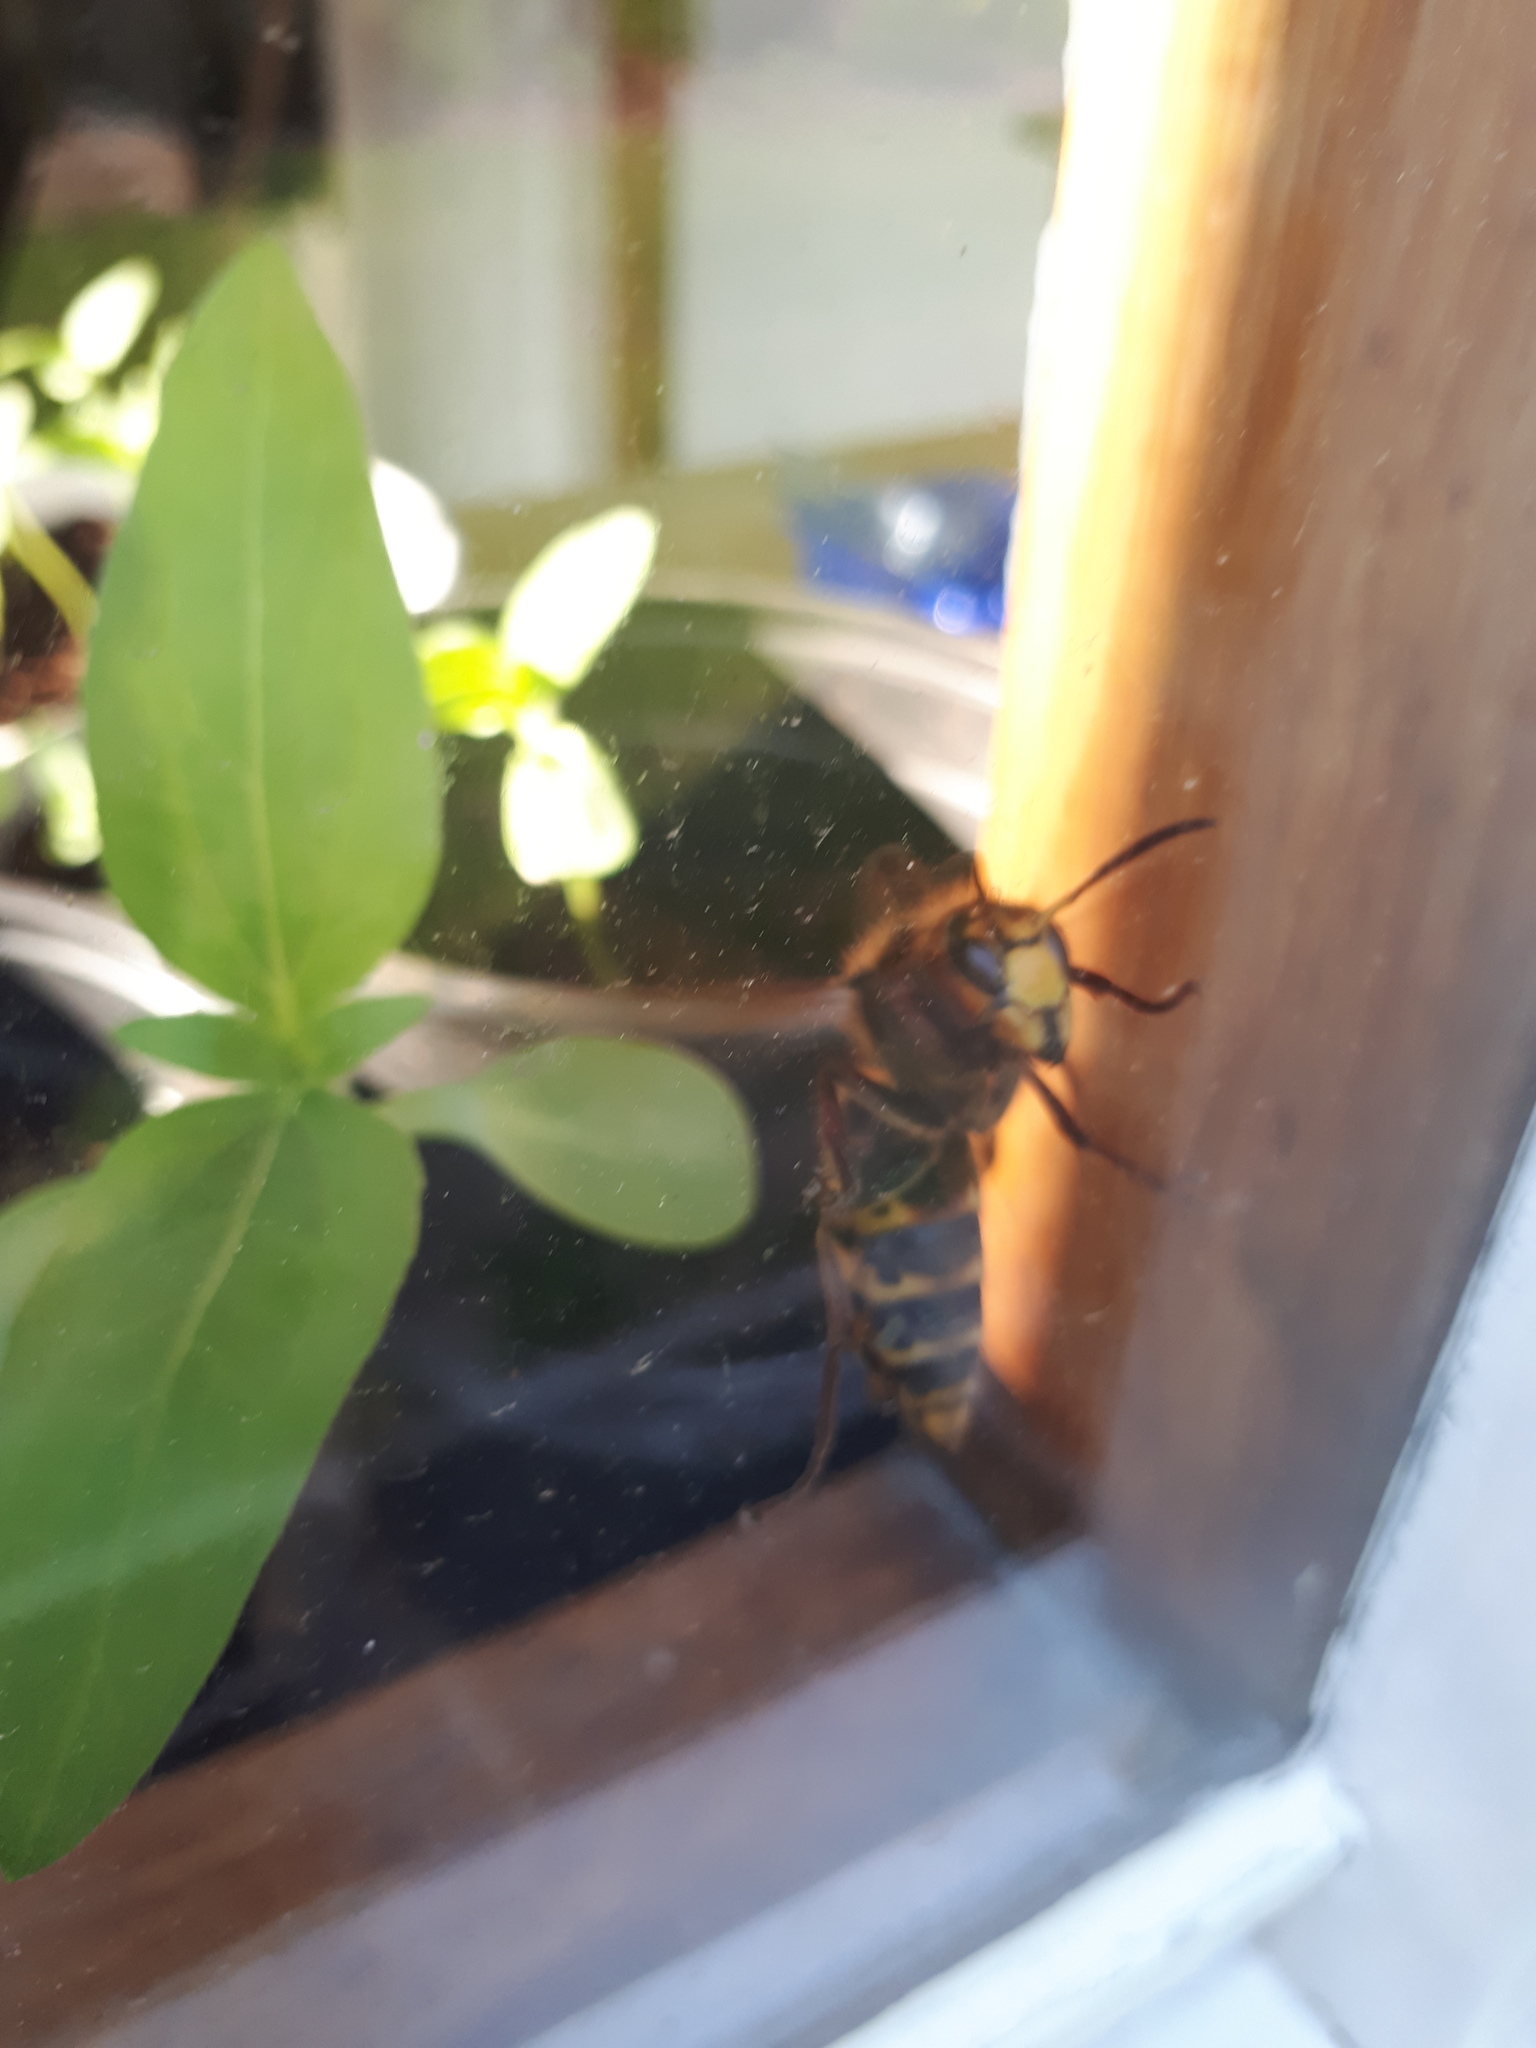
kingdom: Animalia
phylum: Arthropoda
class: Insecta
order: Hymenoptera
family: Vespidae
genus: Vespa
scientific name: Vespa crabro
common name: Hornet
